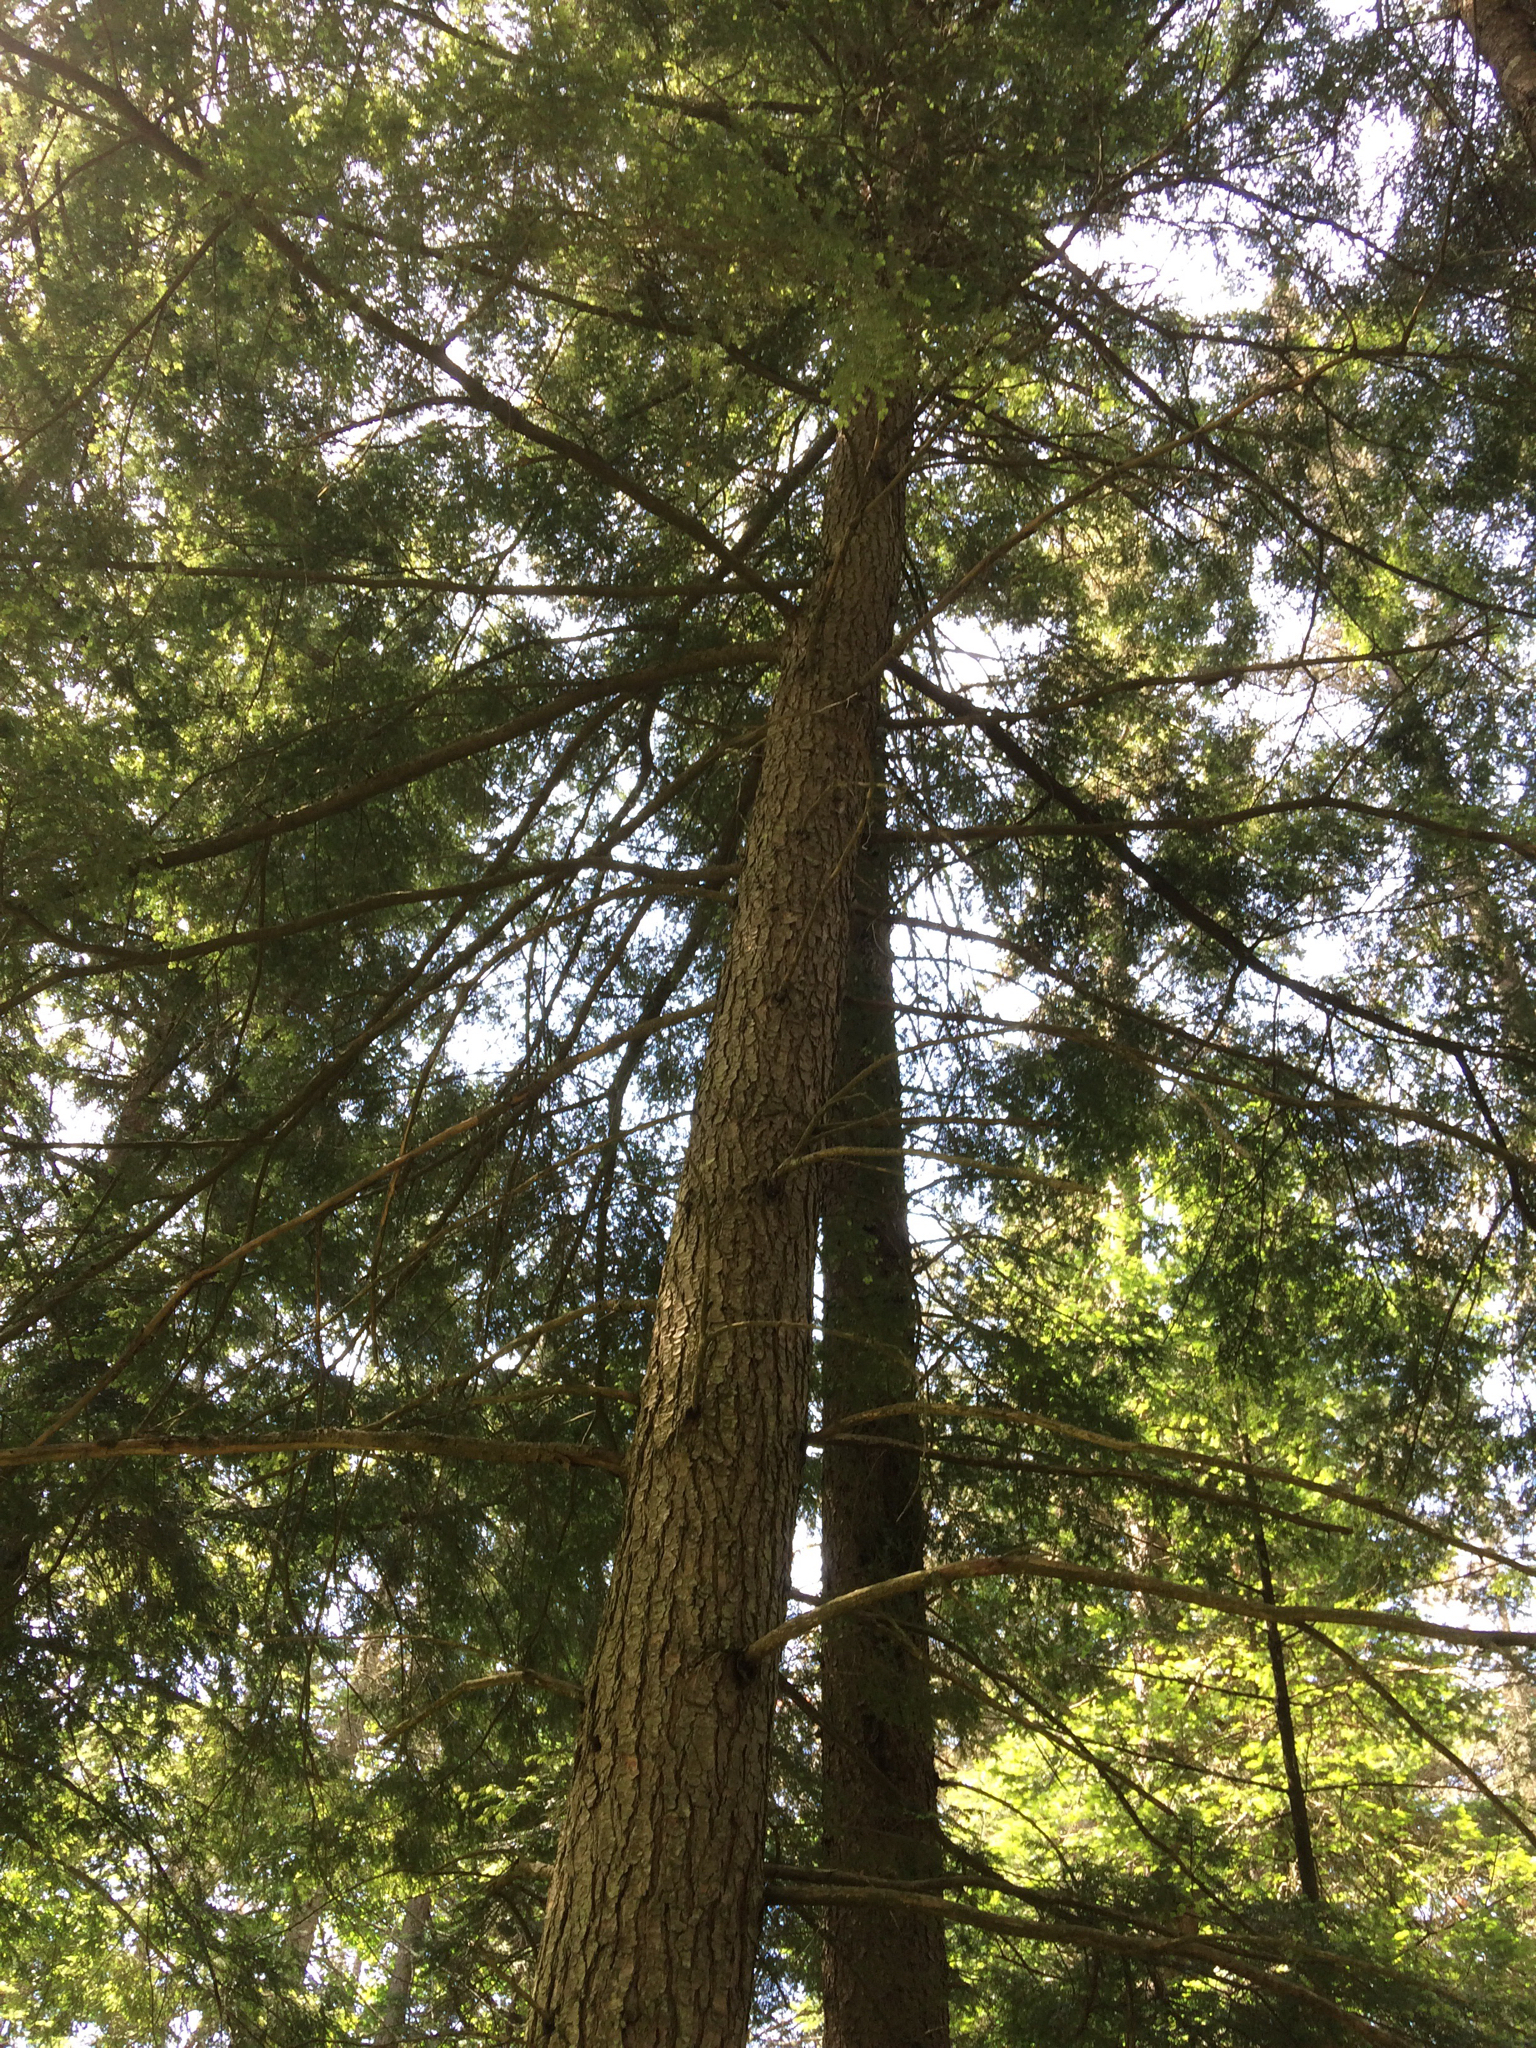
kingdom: Plantae
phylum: Tracheophyta
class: Pinopsida
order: Pinales
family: Pinaceae
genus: Tsuga
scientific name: Tsuga canadensis
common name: Eastern hemlock
